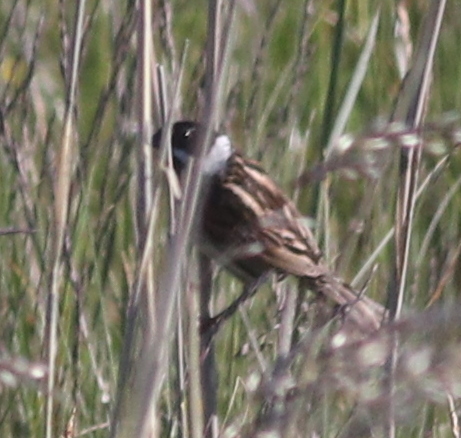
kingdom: Animalia
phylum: Chordata
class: Aves
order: Passeriformes
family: Emberizidae
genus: Emberiza
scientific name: Emberiza schoeniclus
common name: Reed bunting
